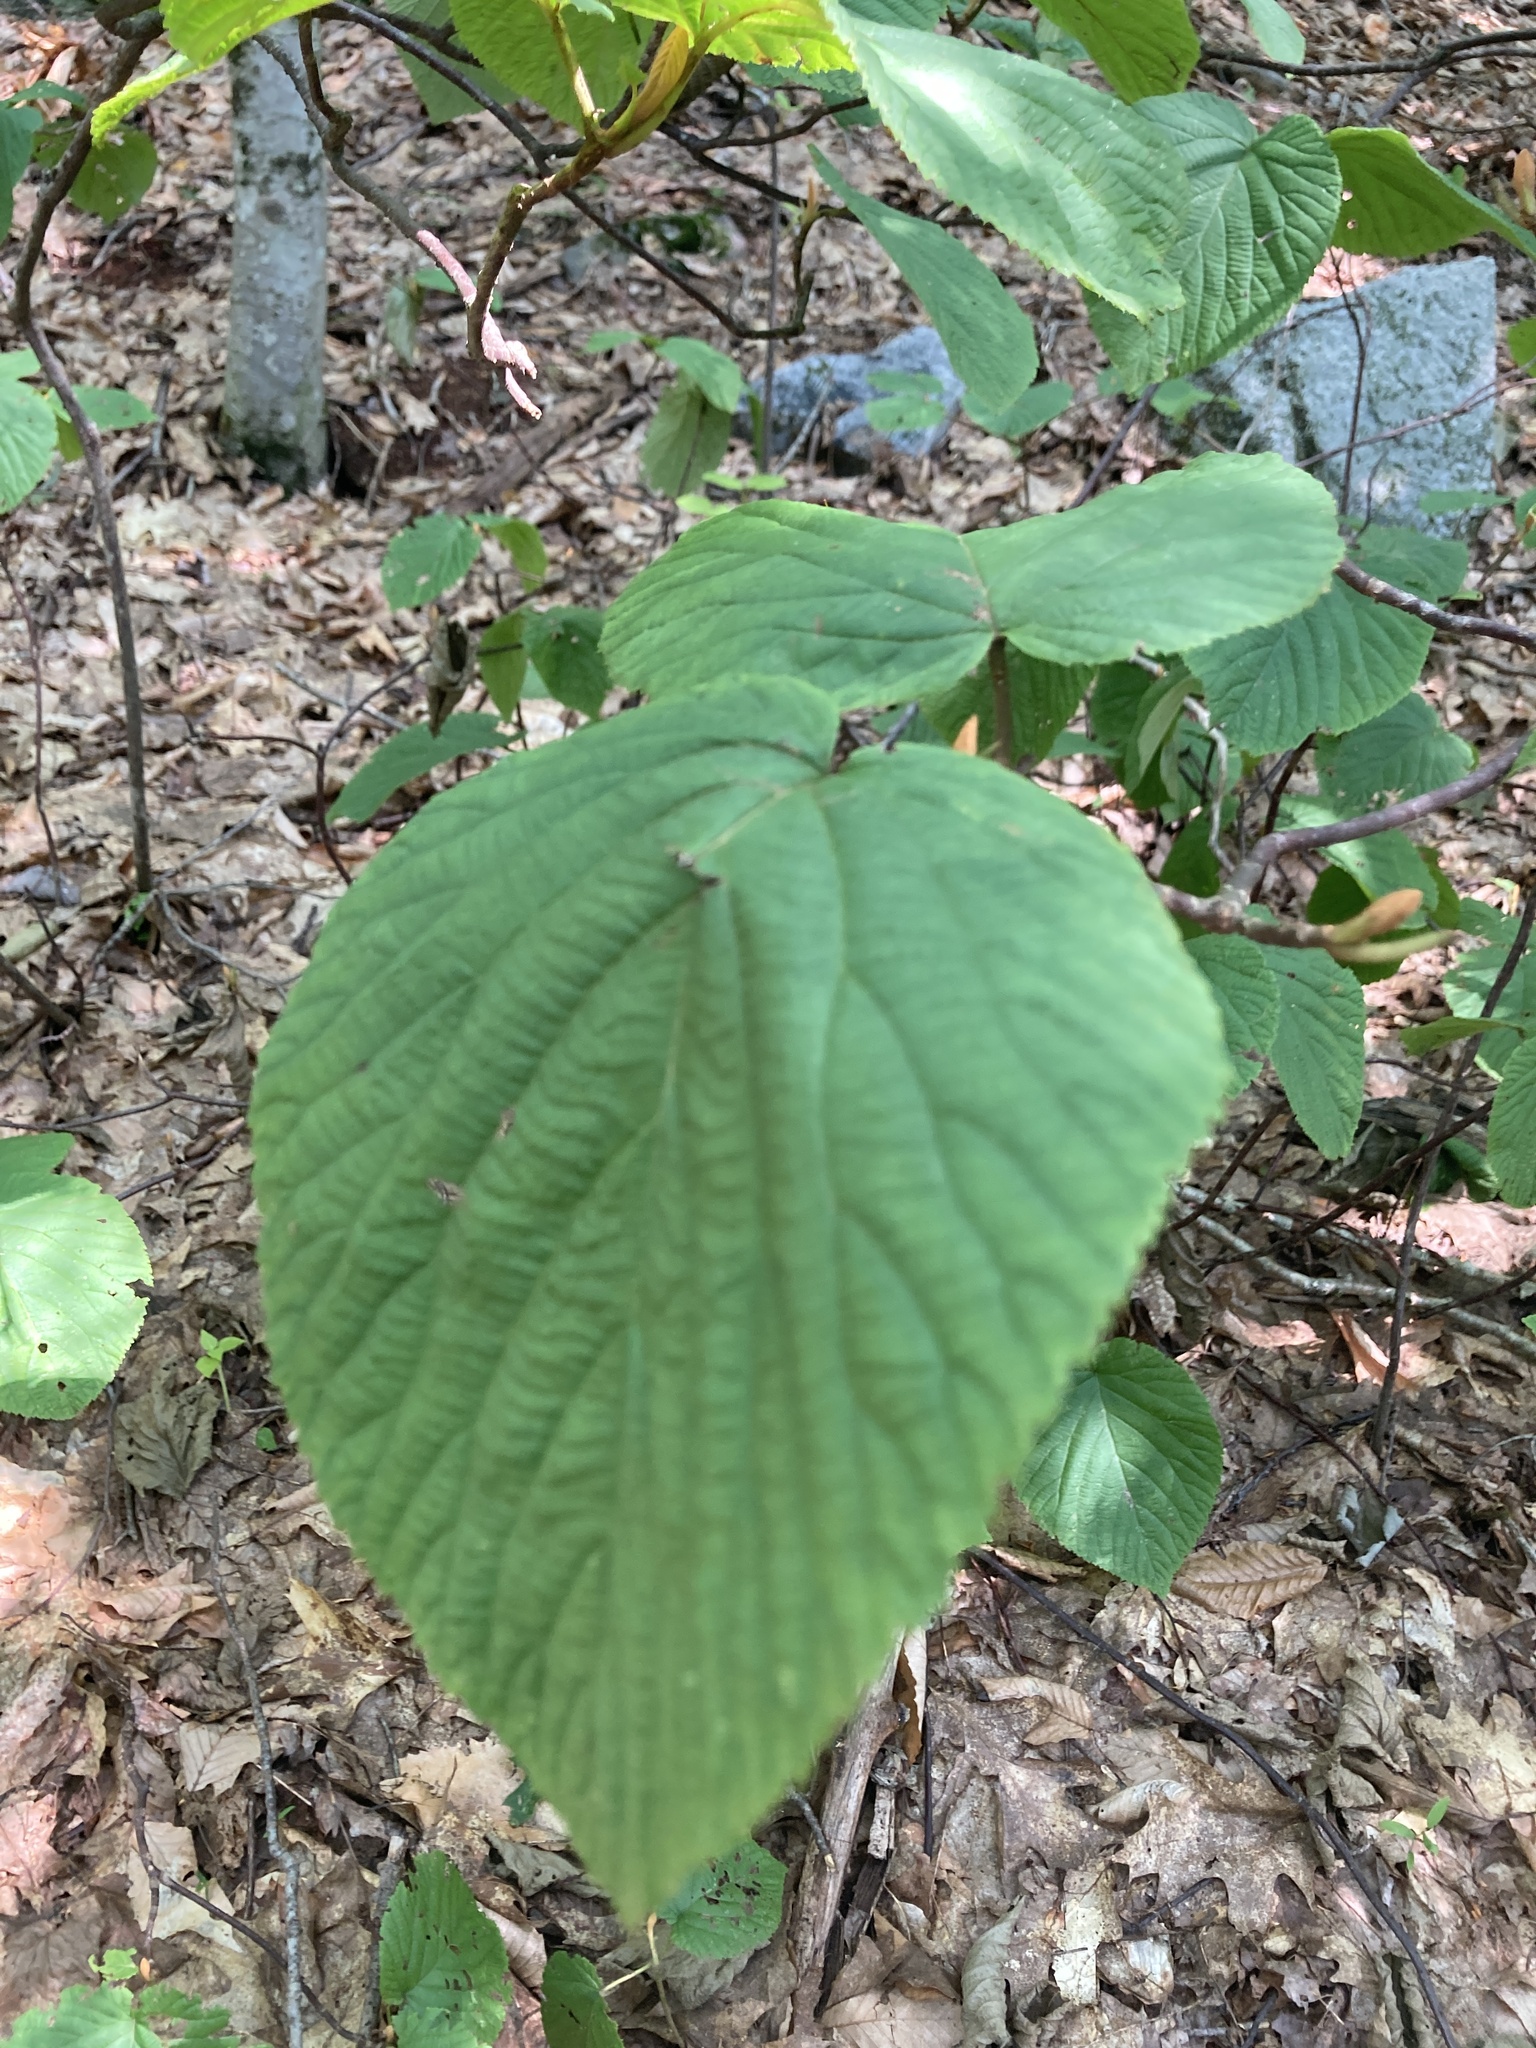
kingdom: Plantae
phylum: Tracheophyta
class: Magnoliopsida
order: Dipsacales
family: Viburnaceae
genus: Viburnum
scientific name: Viburnum lantanoides
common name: Hobblebush
